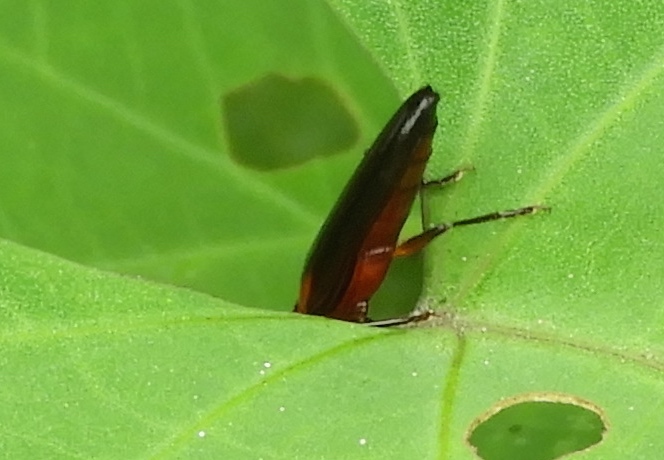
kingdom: Animalia
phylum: Arthropoda
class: Insecta
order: Coleoptera
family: Erotylidae
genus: Langurites
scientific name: Langurites lineatus
